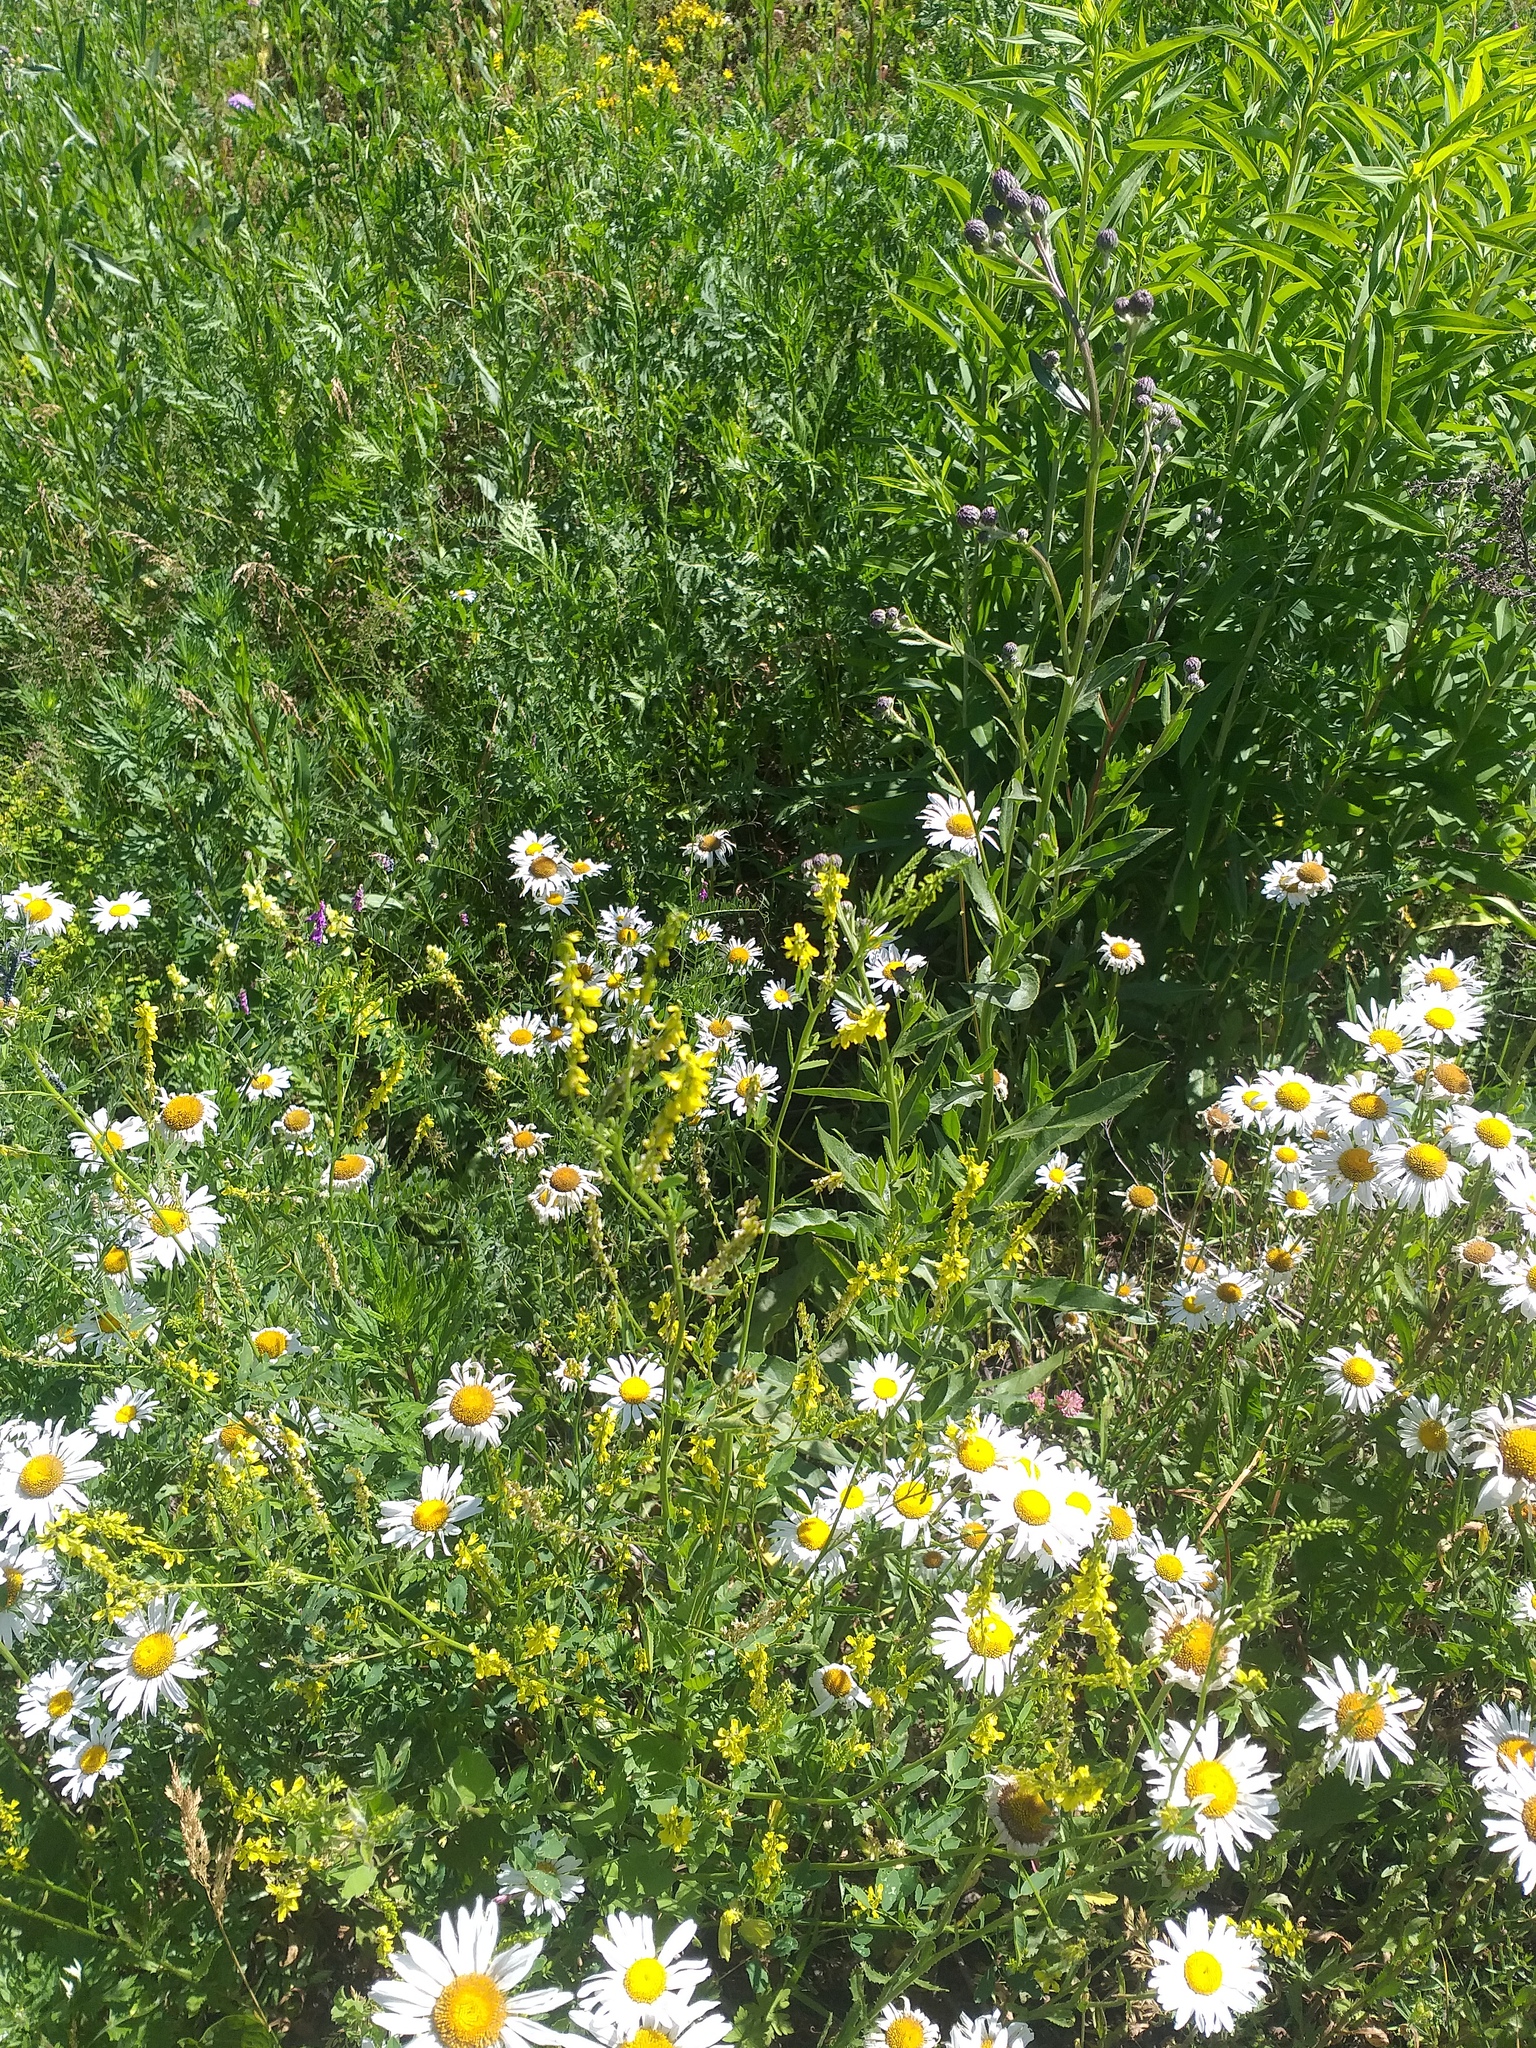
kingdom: Plantae
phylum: Tracheophyta
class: Magnoliopsida
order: Asterales
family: Asteraceae
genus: Leucanthemum
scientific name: Leucanthemum vulgare
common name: Oxeye daisy
